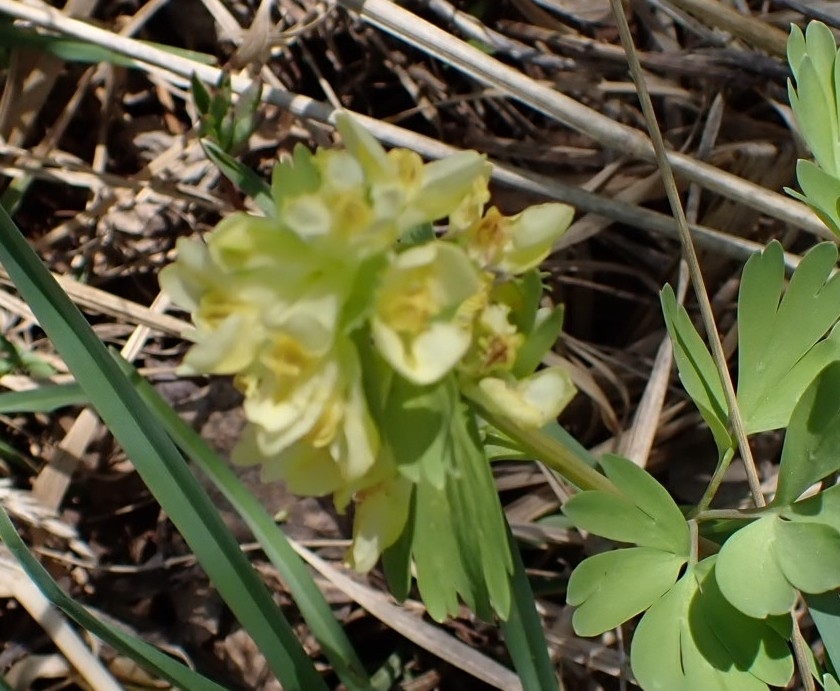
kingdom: Plantae
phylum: Tracheophyta
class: Magnoliopsida
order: Ranunculales
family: Papaveraceae
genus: Corydalis
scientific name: Corydalis bracteata
